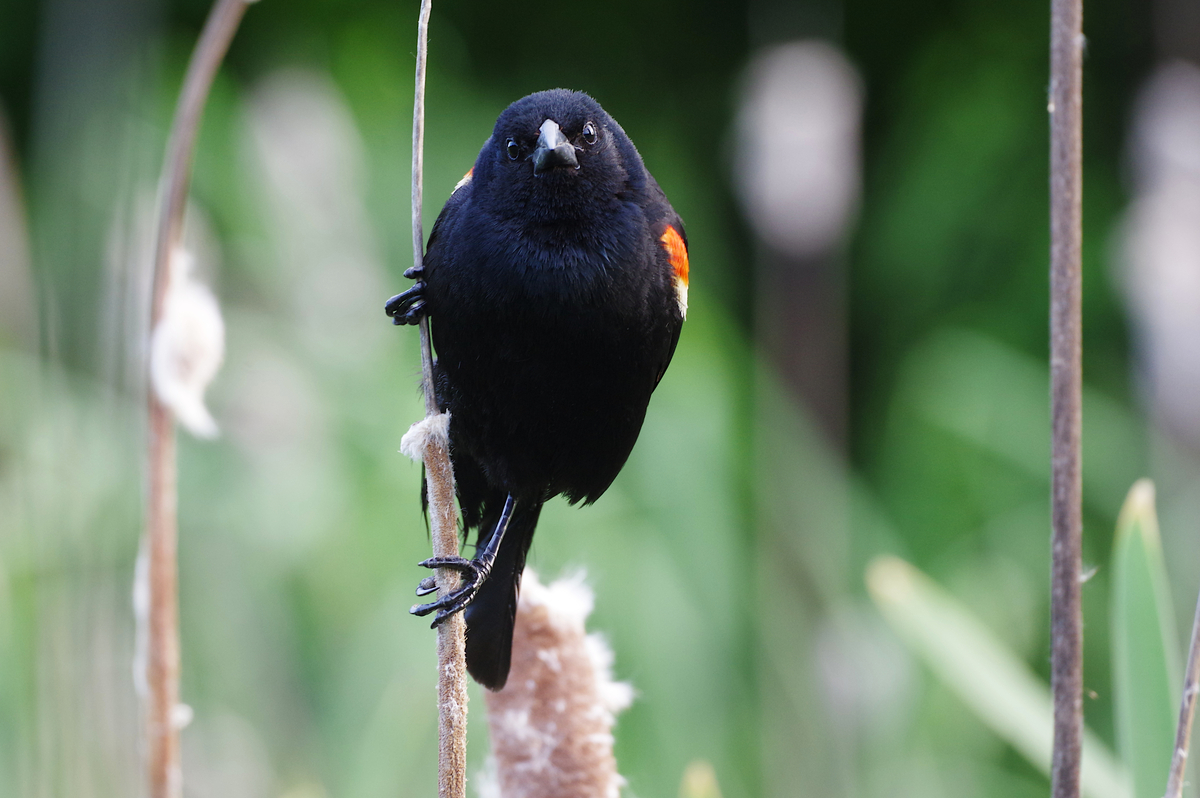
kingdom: Animalia
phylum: Chordata
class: Aves
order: Passeriformes
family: Icteridae
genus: Agelaius
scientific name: Agelaius phoeniceus
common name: Red-winged blackbird
